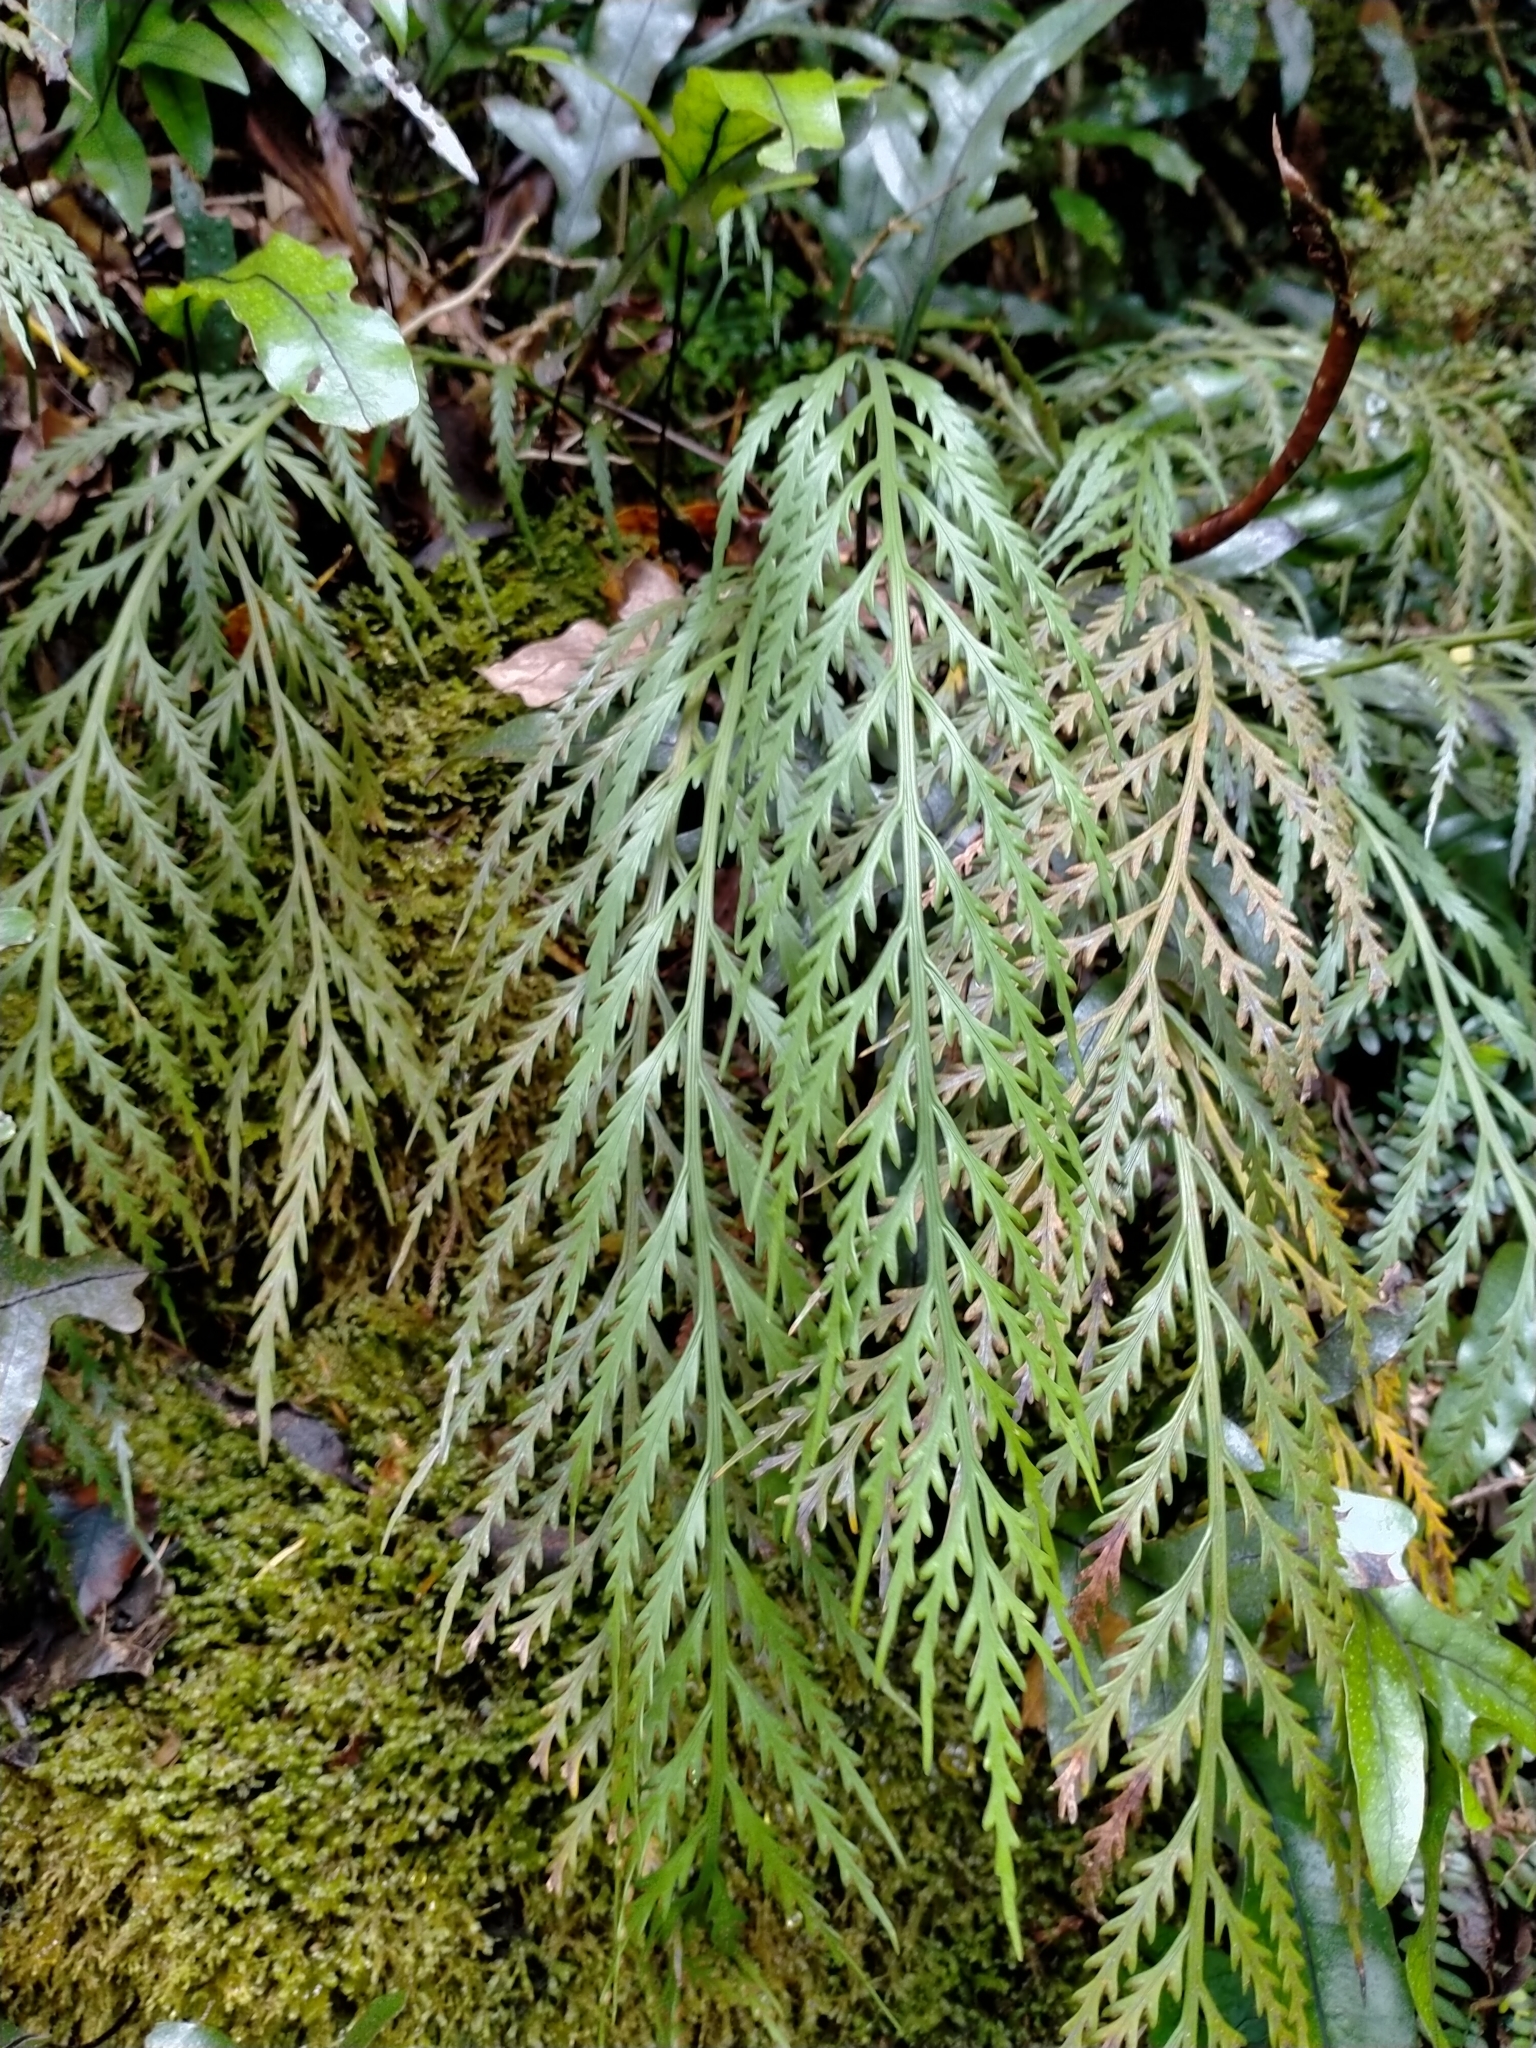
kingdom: Plantae
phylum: Tracheophyta
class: Polypodiopsida
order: Polypodiales
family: Aspleniaceae
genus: Asplenium
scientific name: Asplenium flaccidum
